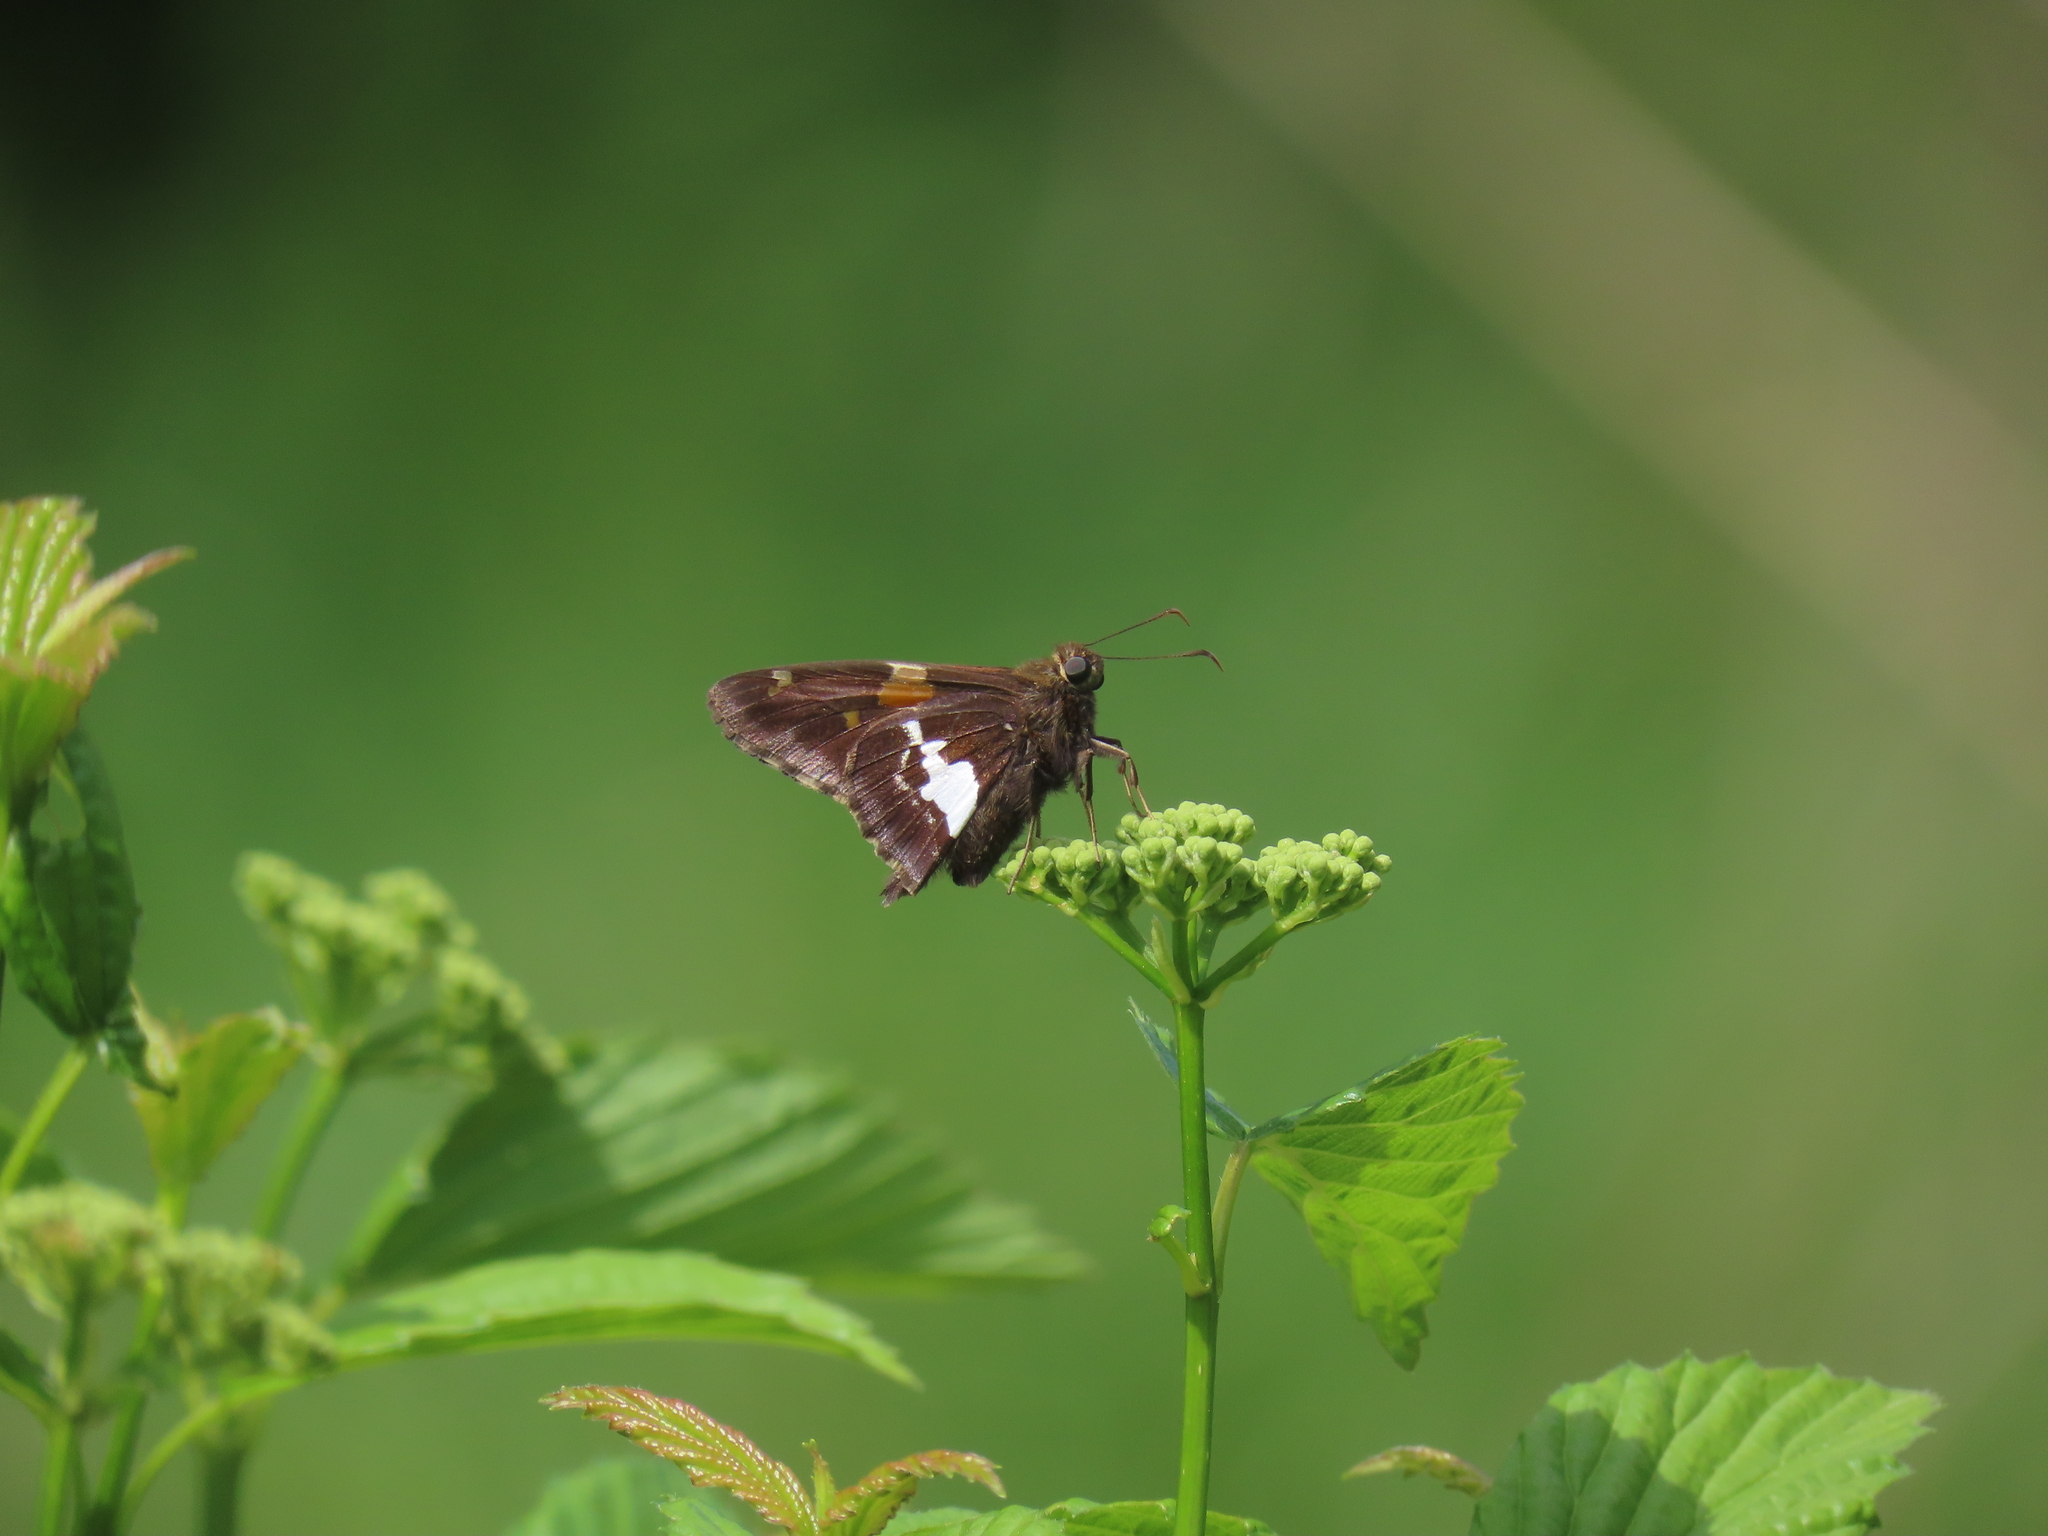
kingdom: Animalia
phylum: Arthropoda
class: Insecta
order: Lepidoptera
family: Hesperiidae
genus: Epargyreus
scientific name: Epargyreus clarus
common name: Silver-spotted skipper
